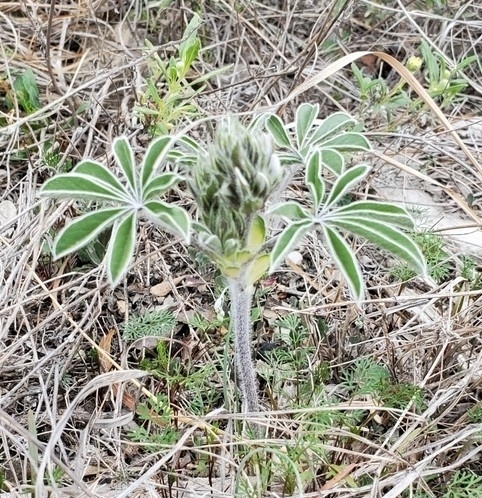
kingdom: Plantae
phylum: Tracheophyta
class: Magnoliopsida
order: Fabales
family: Fabaceae
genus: Pediomelum
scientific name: Pediomelum latestipulatum
